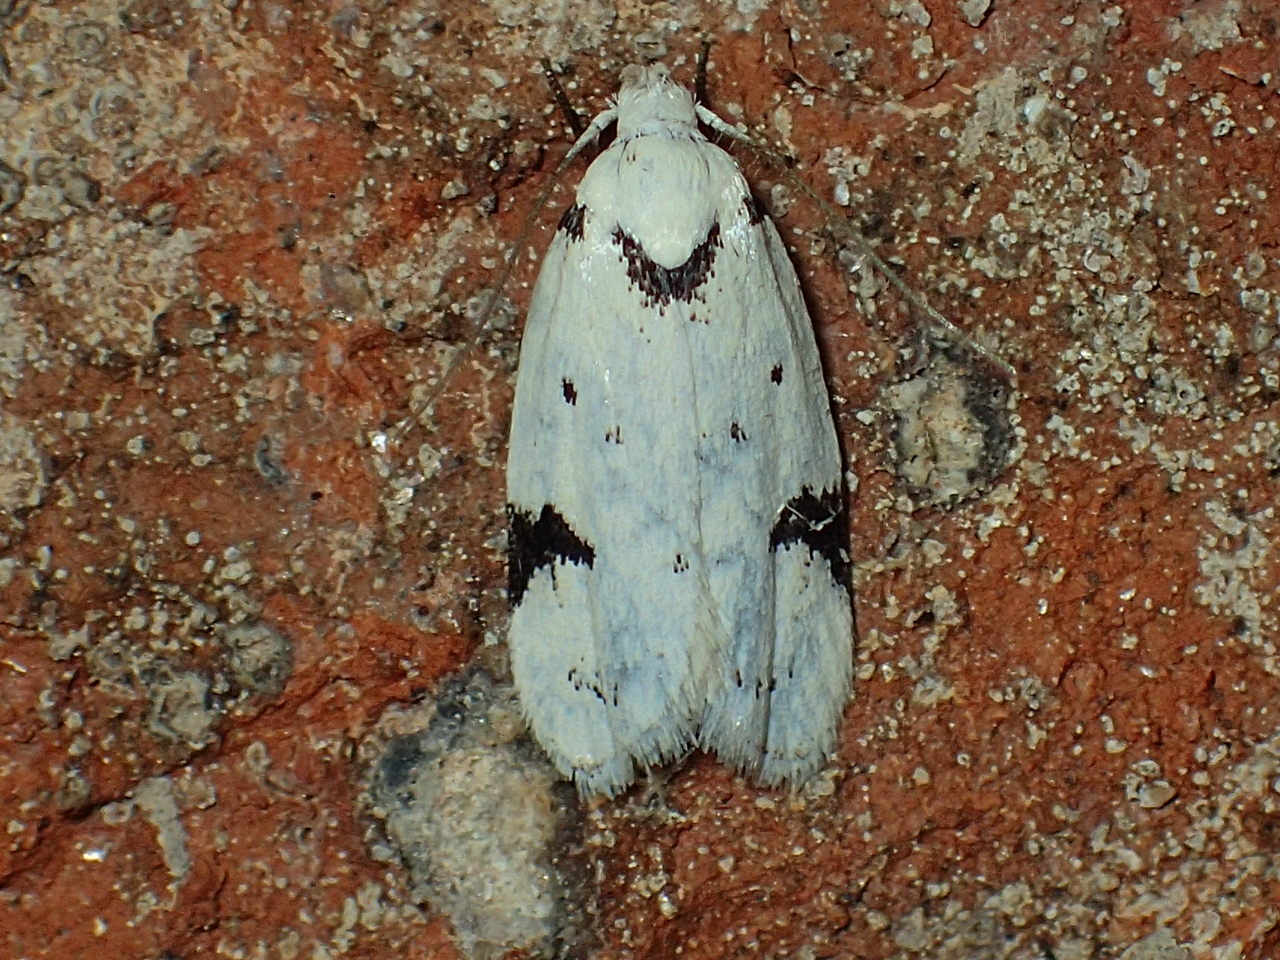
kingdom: Animalia
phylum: Arthropoda
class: Insecta
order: Lepidoptera
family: Oecophoridae
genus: Inga
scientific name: Inga sparsiciliella
